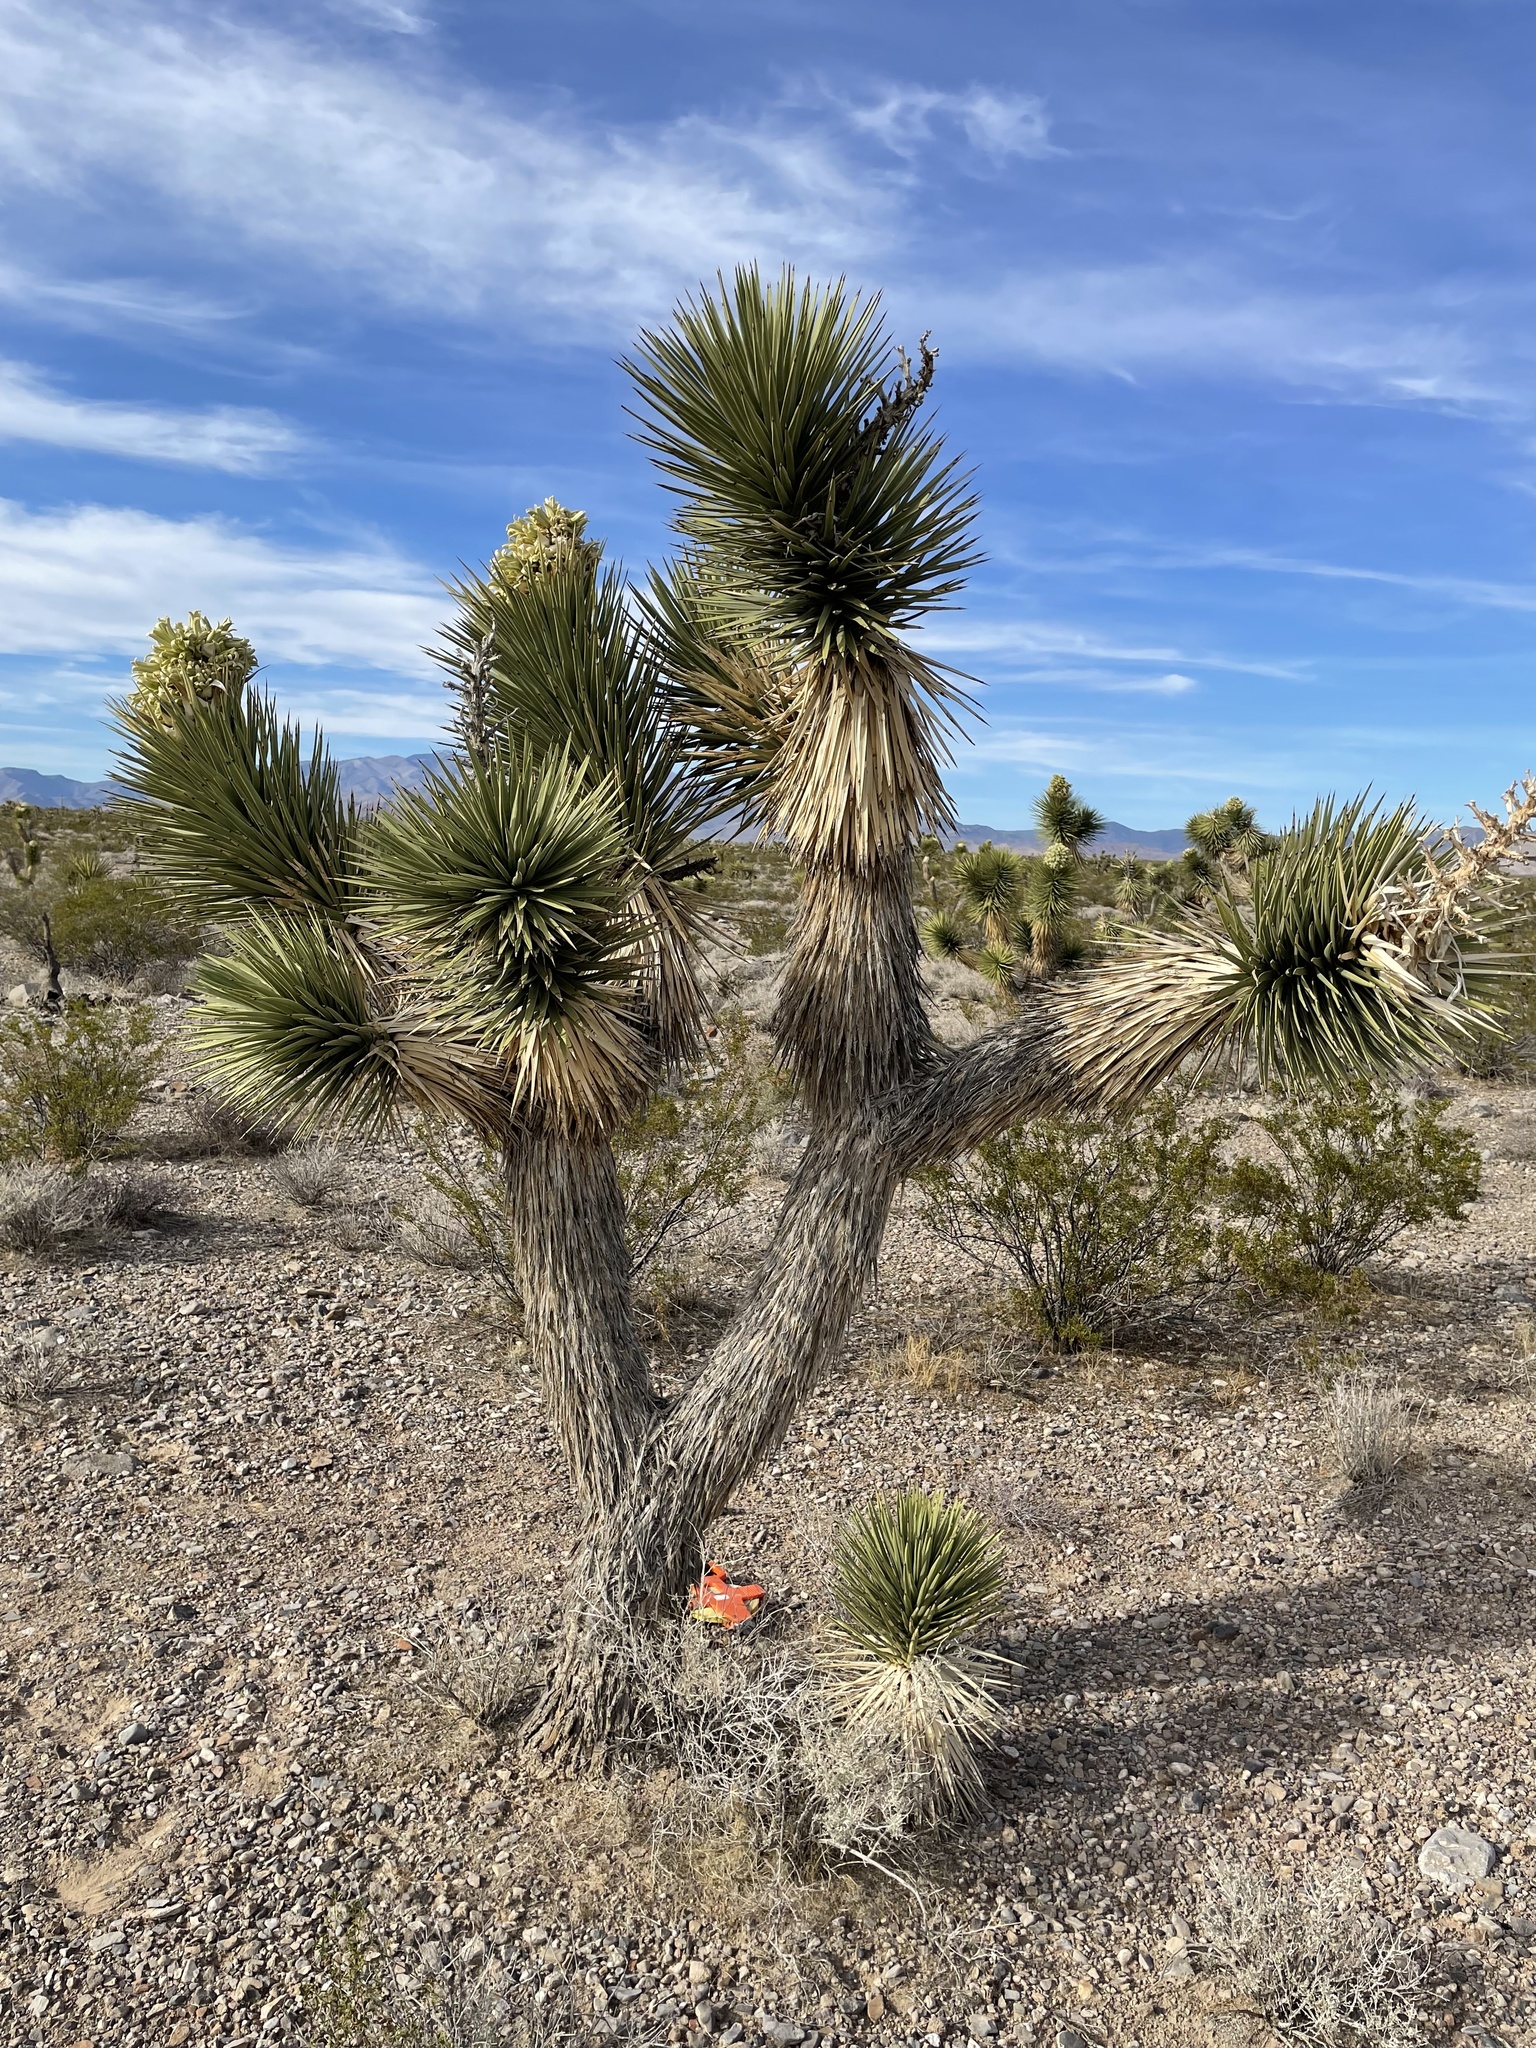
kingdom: Plantae
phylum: Tracheophyta
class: Liliopsida
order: Asparagales
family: Asparagaceae
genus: Yucca
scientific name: Yucca brevifolia
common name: Joshua tree
